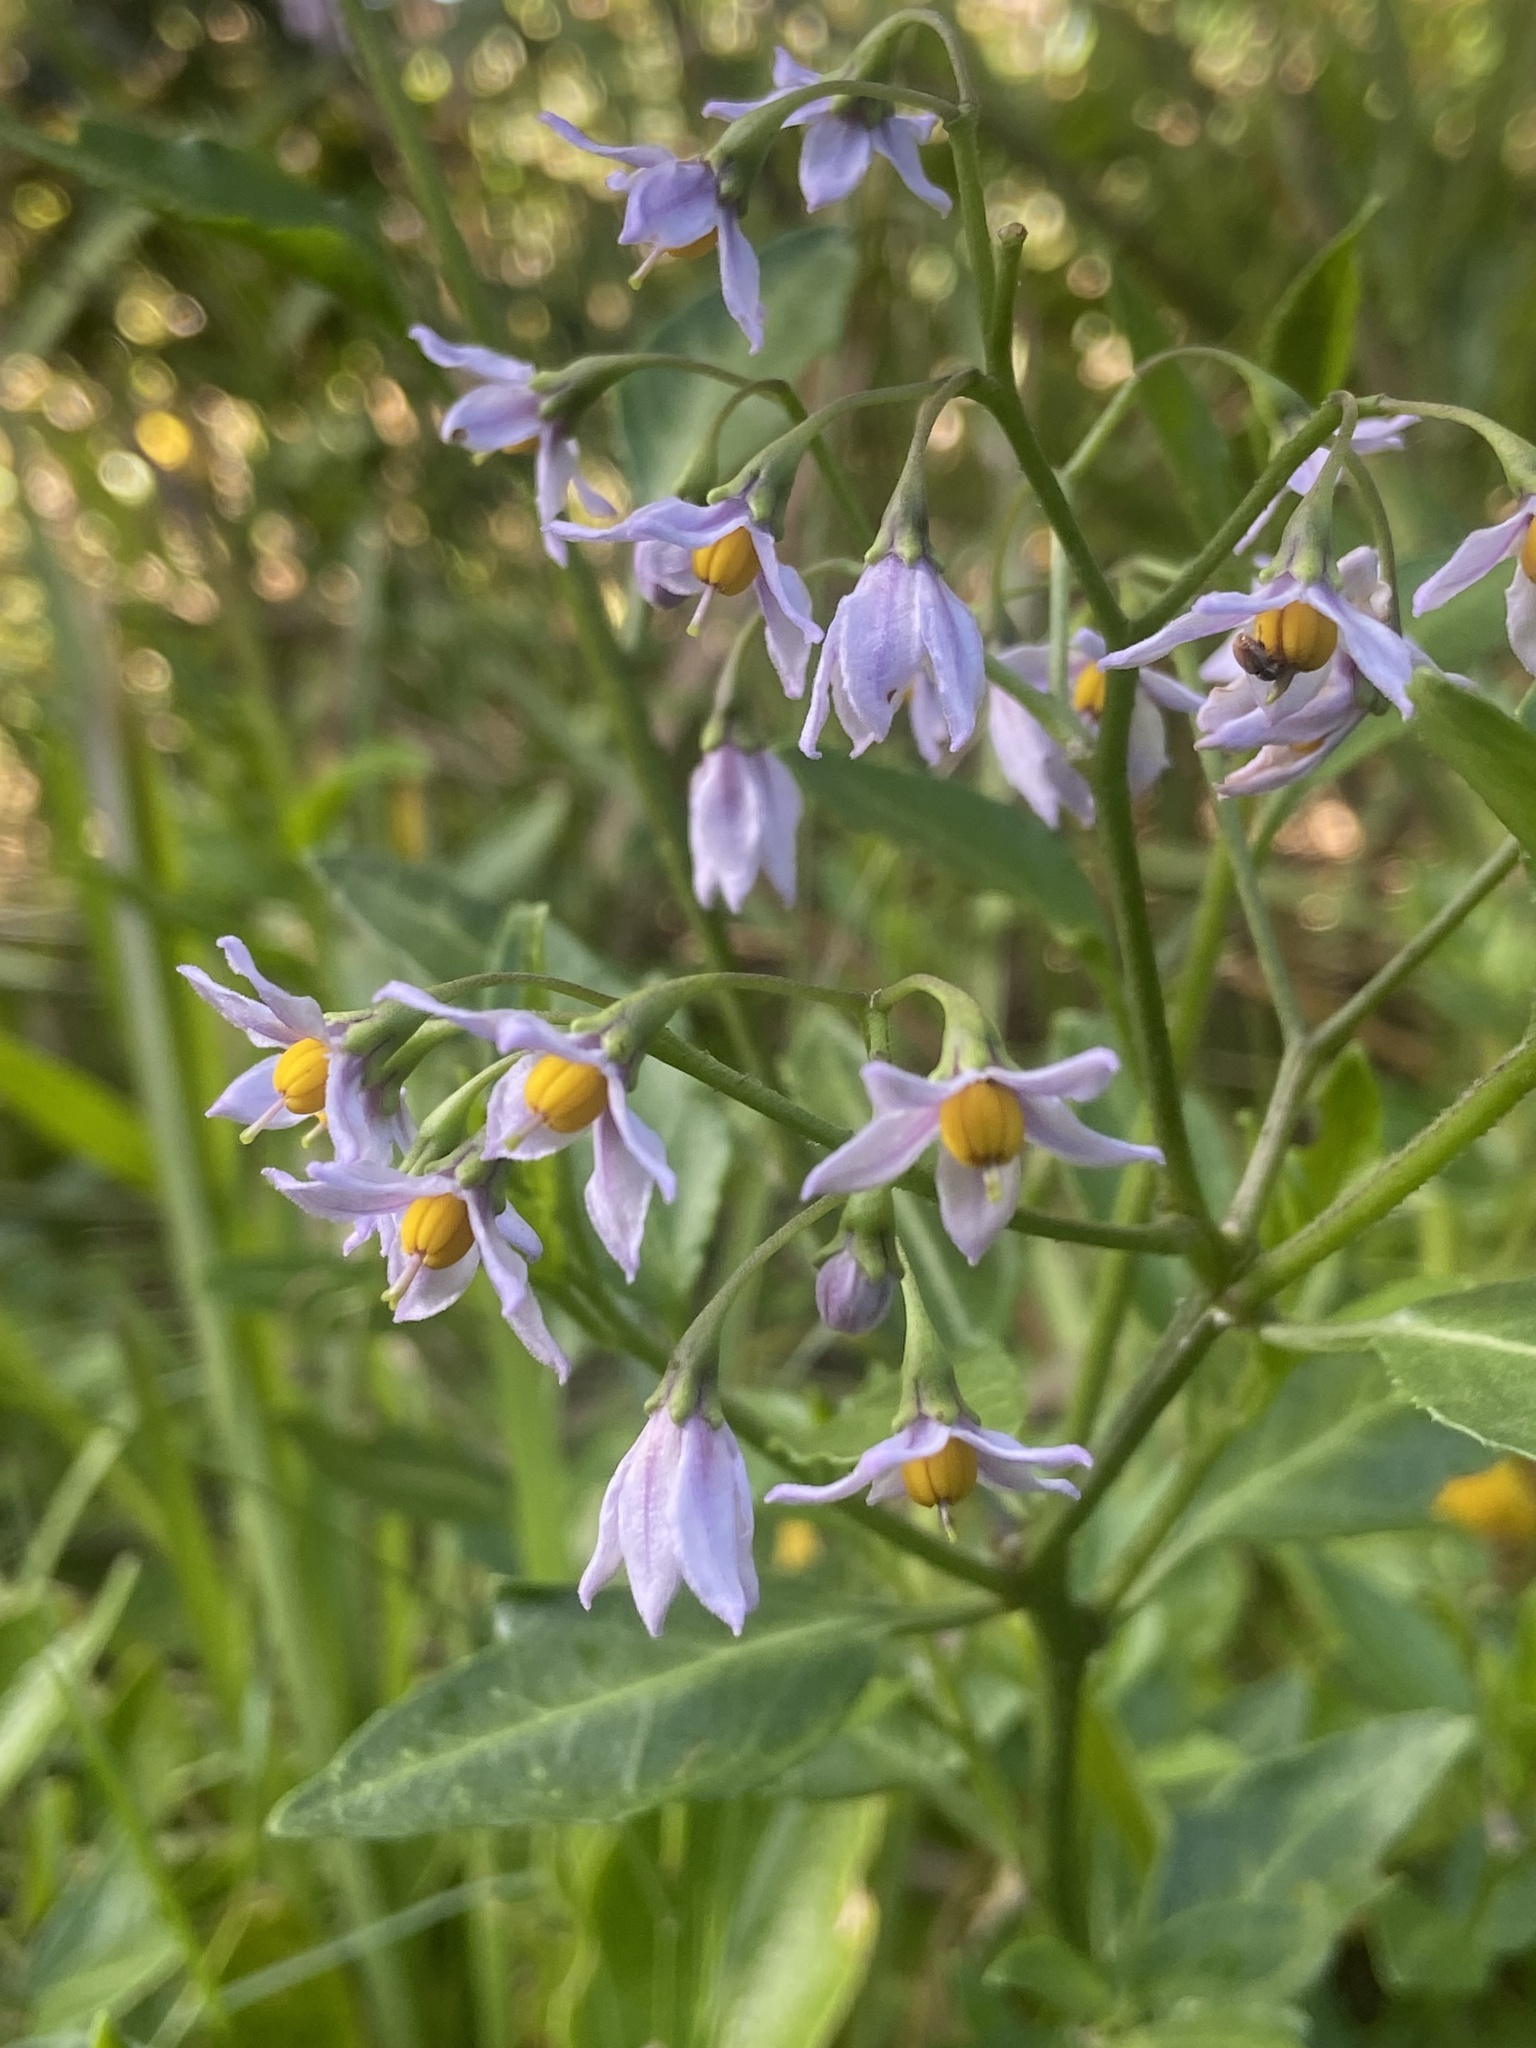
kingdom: Plantae
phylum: Tracheophyta
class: Magnoliopsida
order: Solanales
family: Solanaceae
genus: Solanum
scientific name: Solanum africanum
